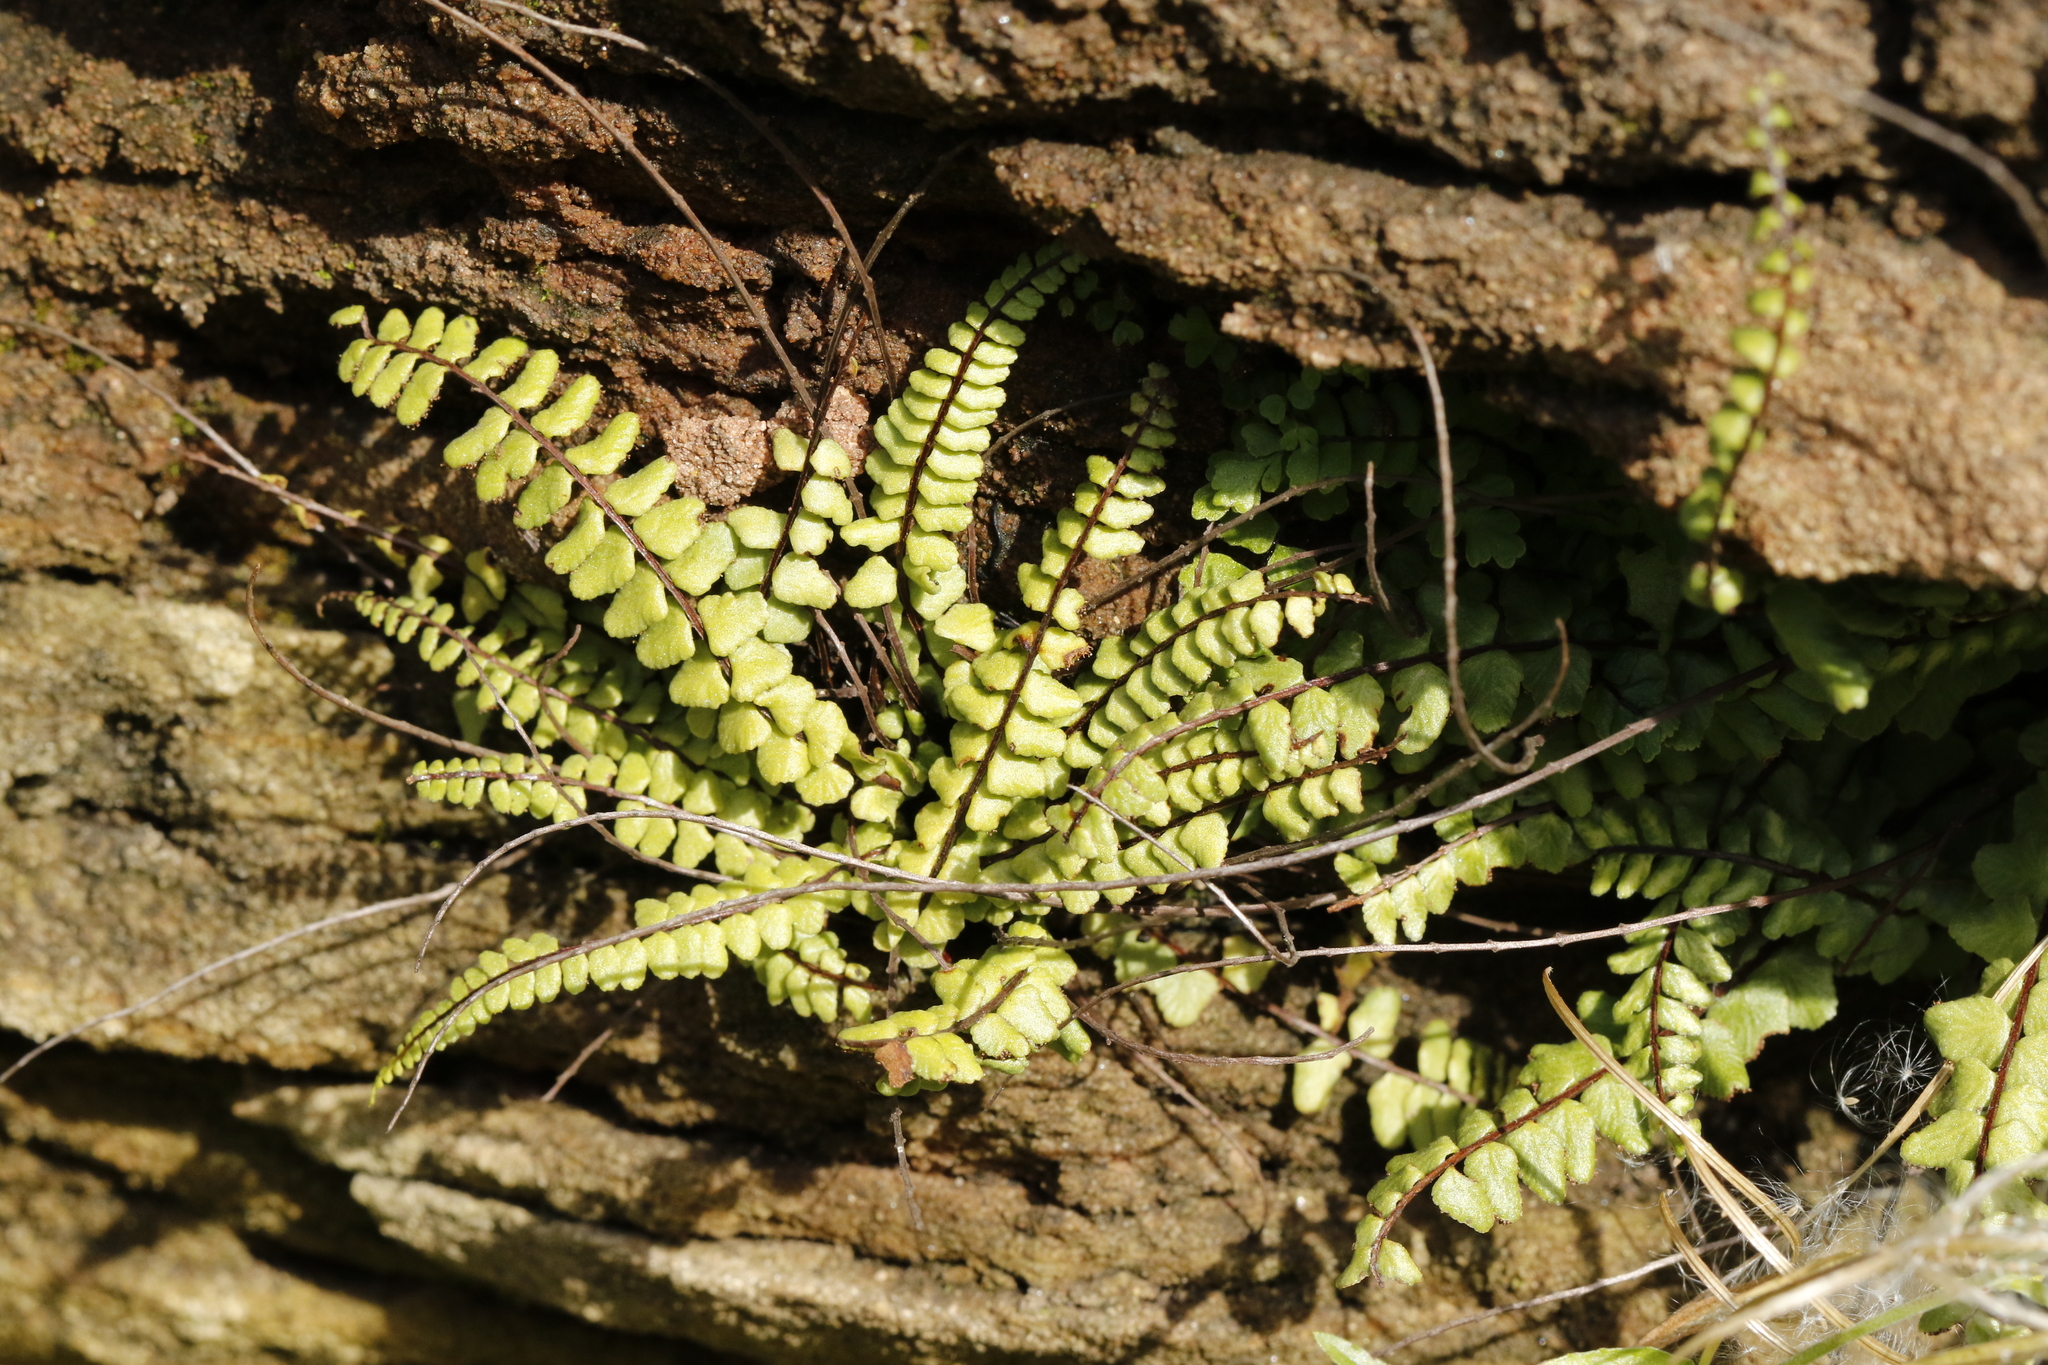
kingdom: Plantae
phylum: Tracheophyta
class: Polypodiopsida
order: Polypodiales
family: Aspleniaceae
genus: Asplenium
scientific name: Asplenium trichomanes
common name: Maidenhair spleenwort
